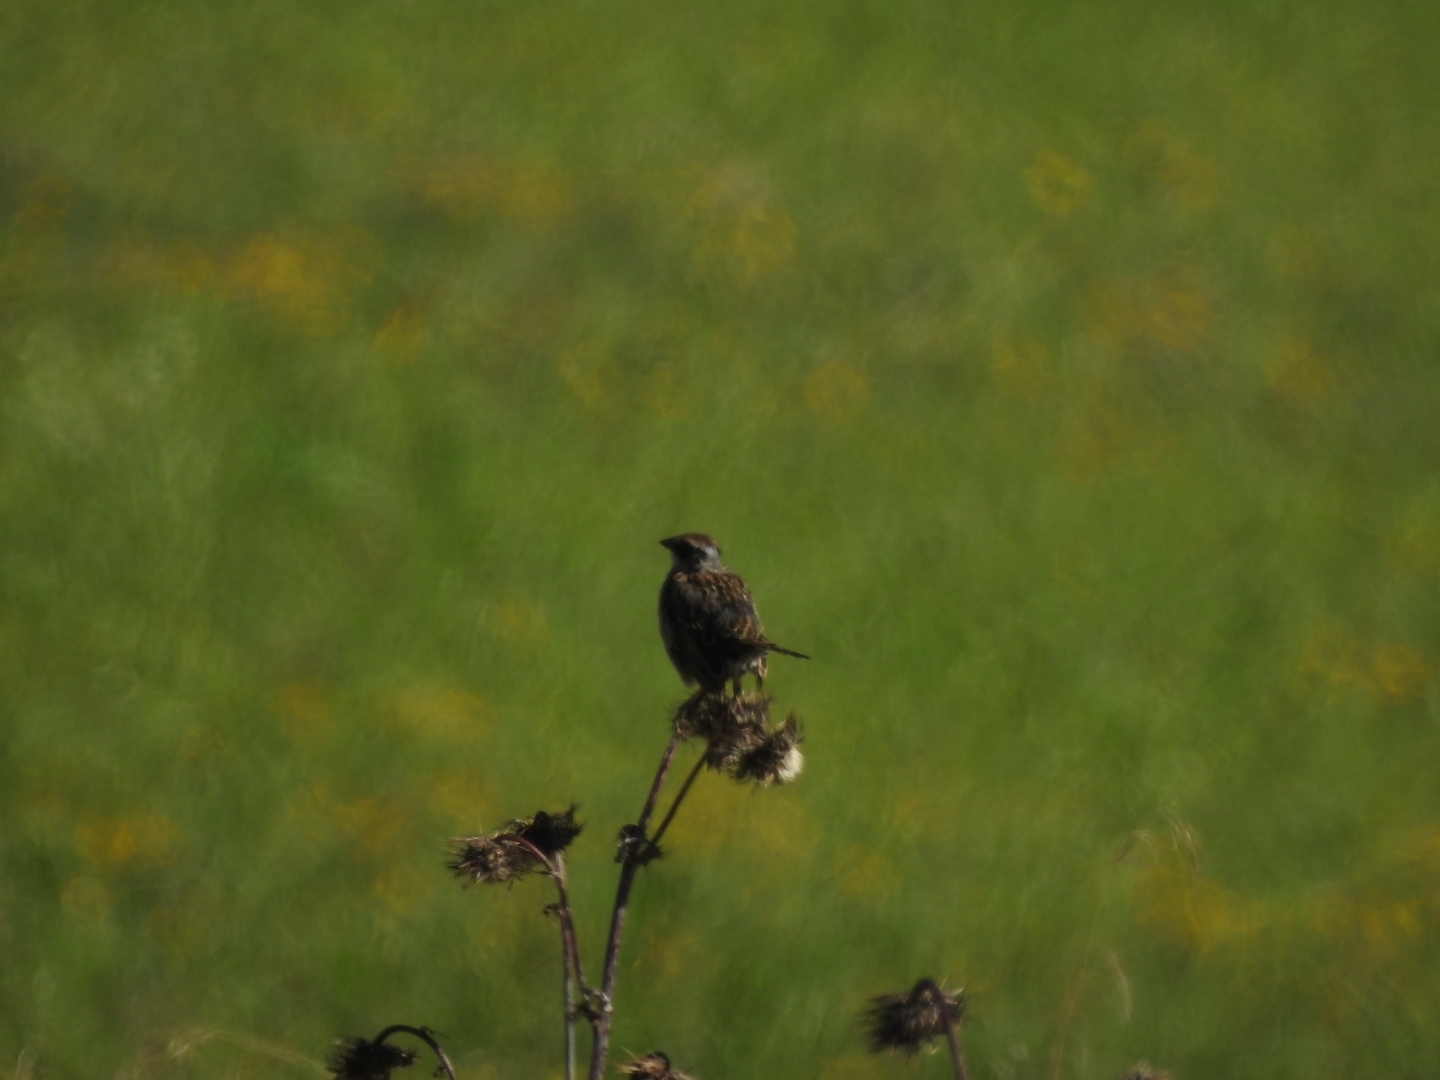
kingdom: Animalia
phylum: Chordata
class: Aves
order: Passeriformes
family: Passerellidae
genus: Oriturus
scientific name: Oriturus superciliosus
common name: Striped sparrow
